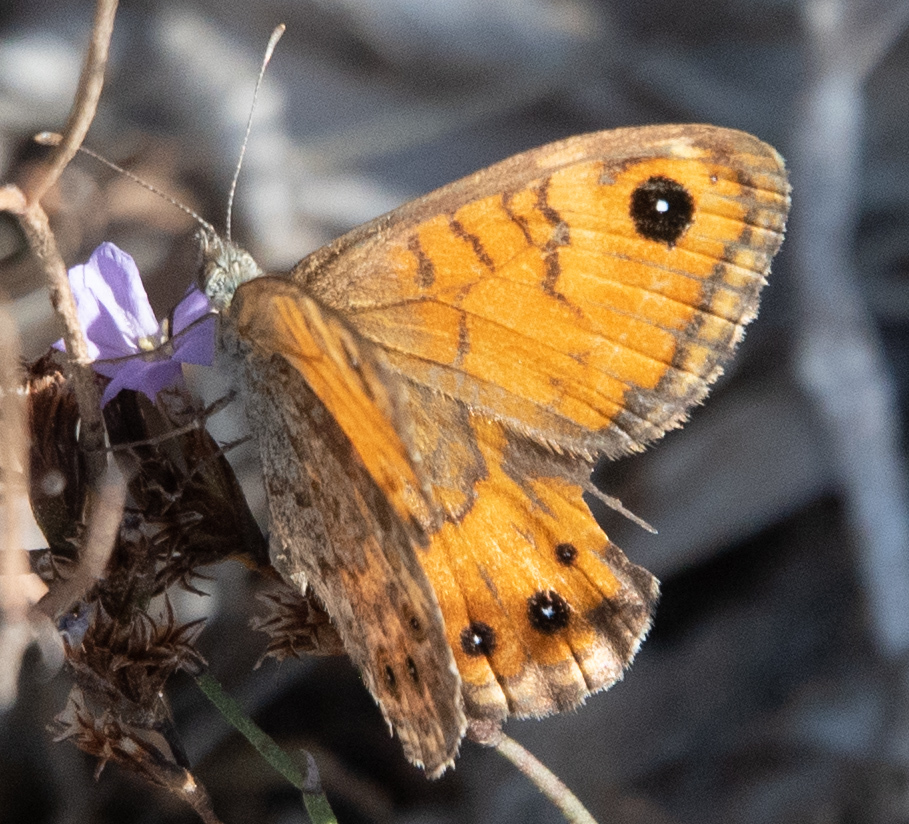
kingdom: Animalia
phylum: Arthropoda
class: Insecta
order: Lepidoptera
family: Nymphalidae
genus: Pararge
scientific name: Pararge Lasiommata megera
